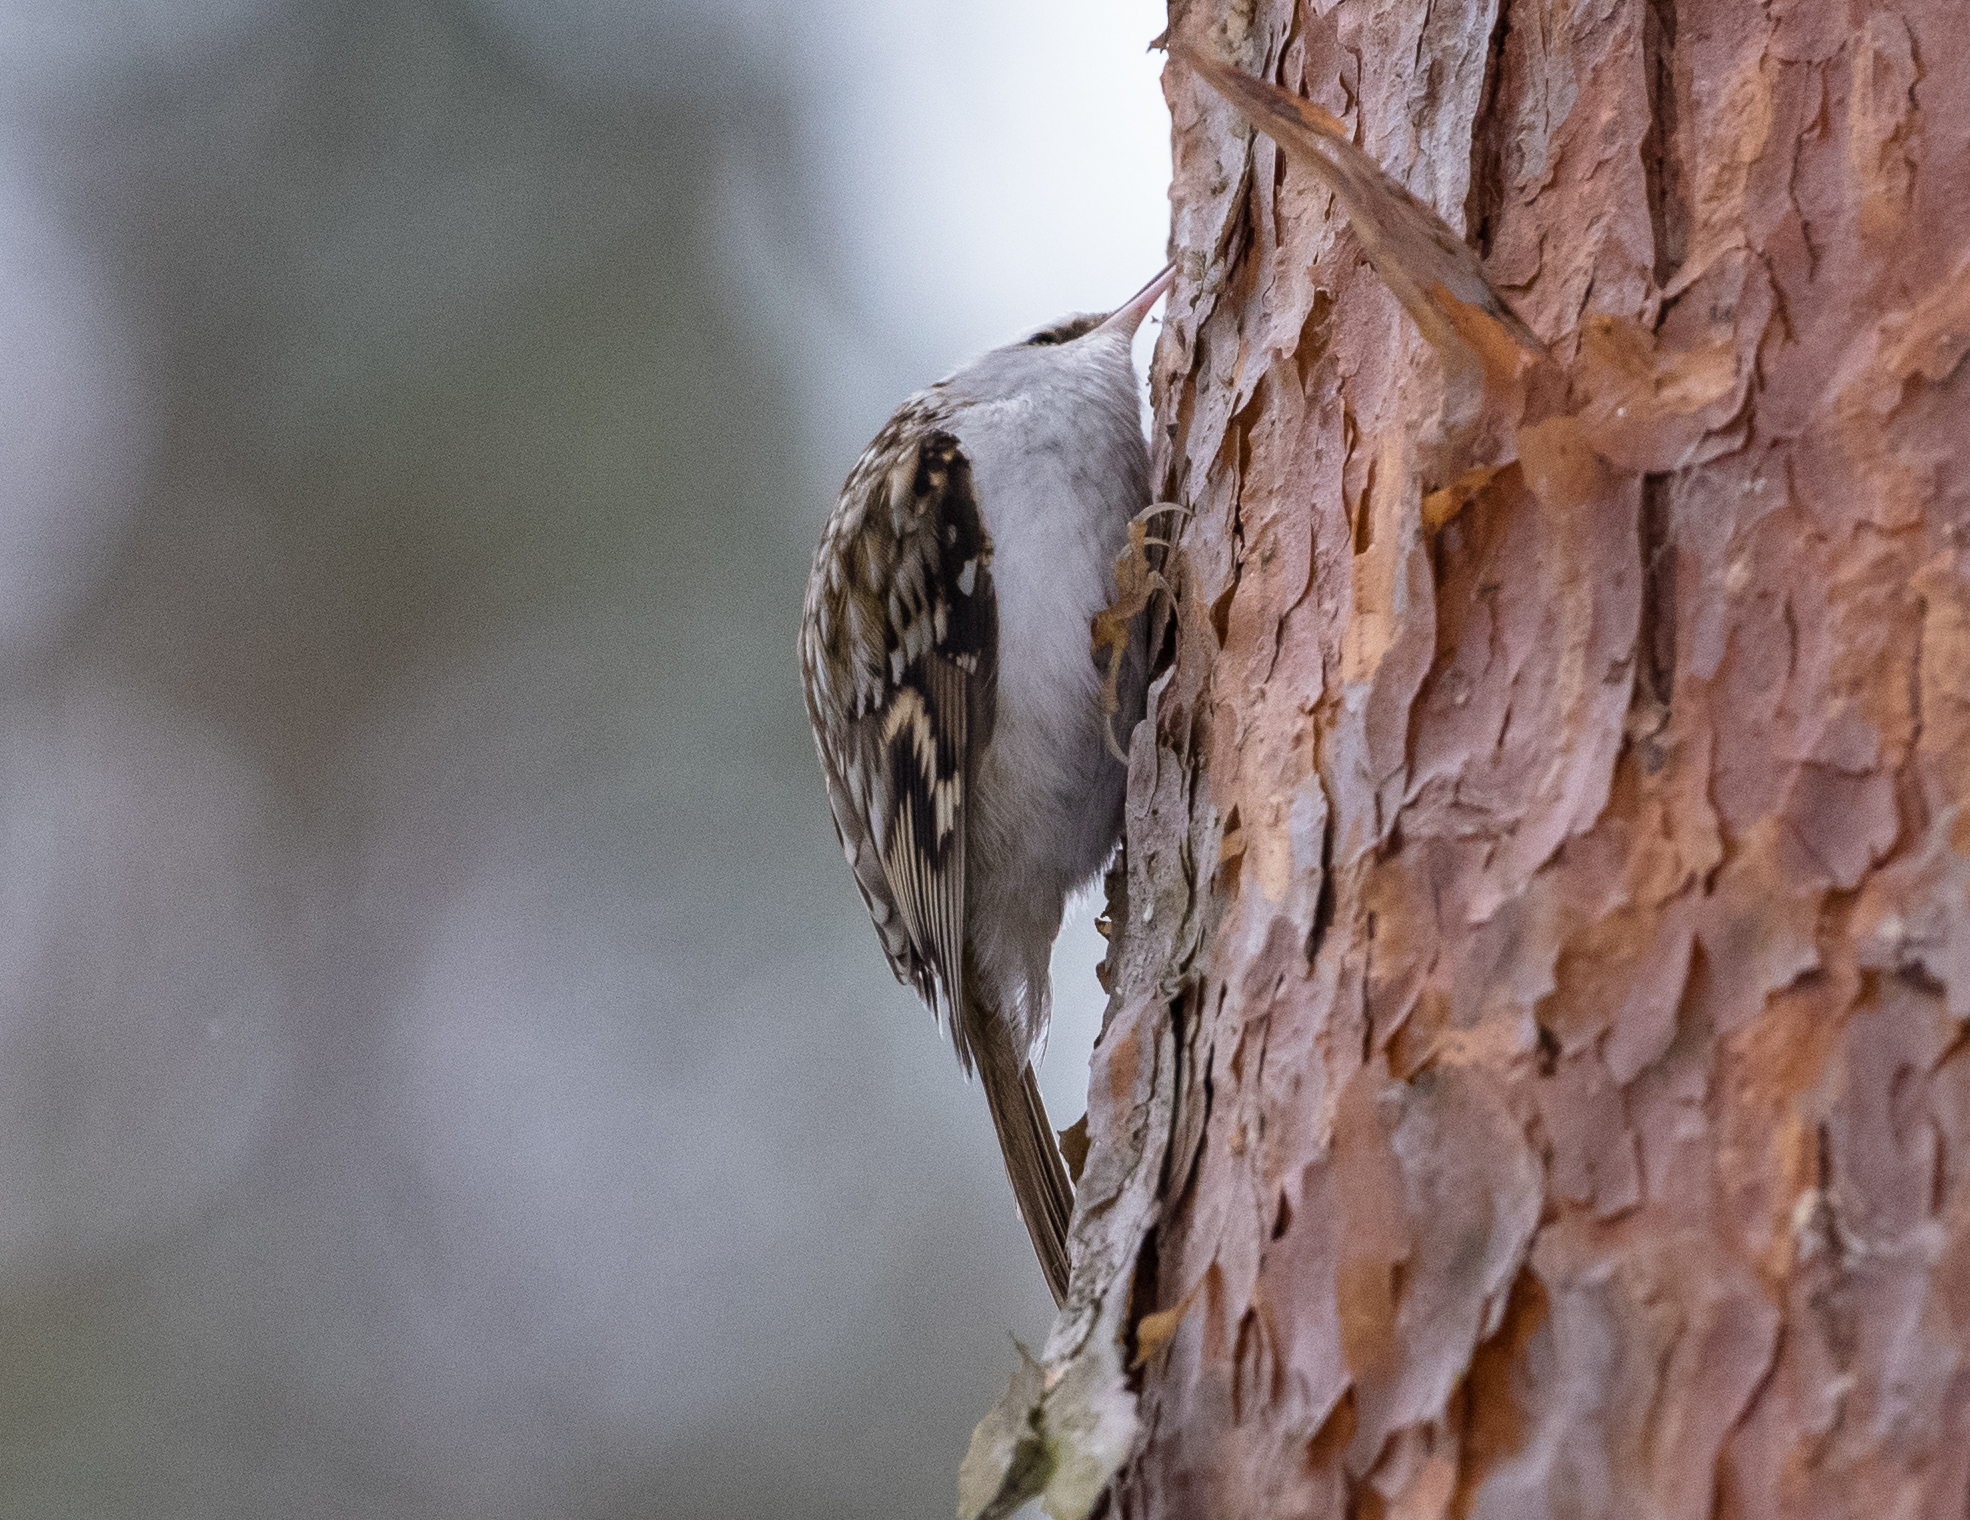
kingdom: Animalia
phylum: Chordata
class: Aves
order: Passeriformes
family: Certhiidae
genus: Certhia
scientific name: Certhia familiaris
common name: Eurasian treecreeper
